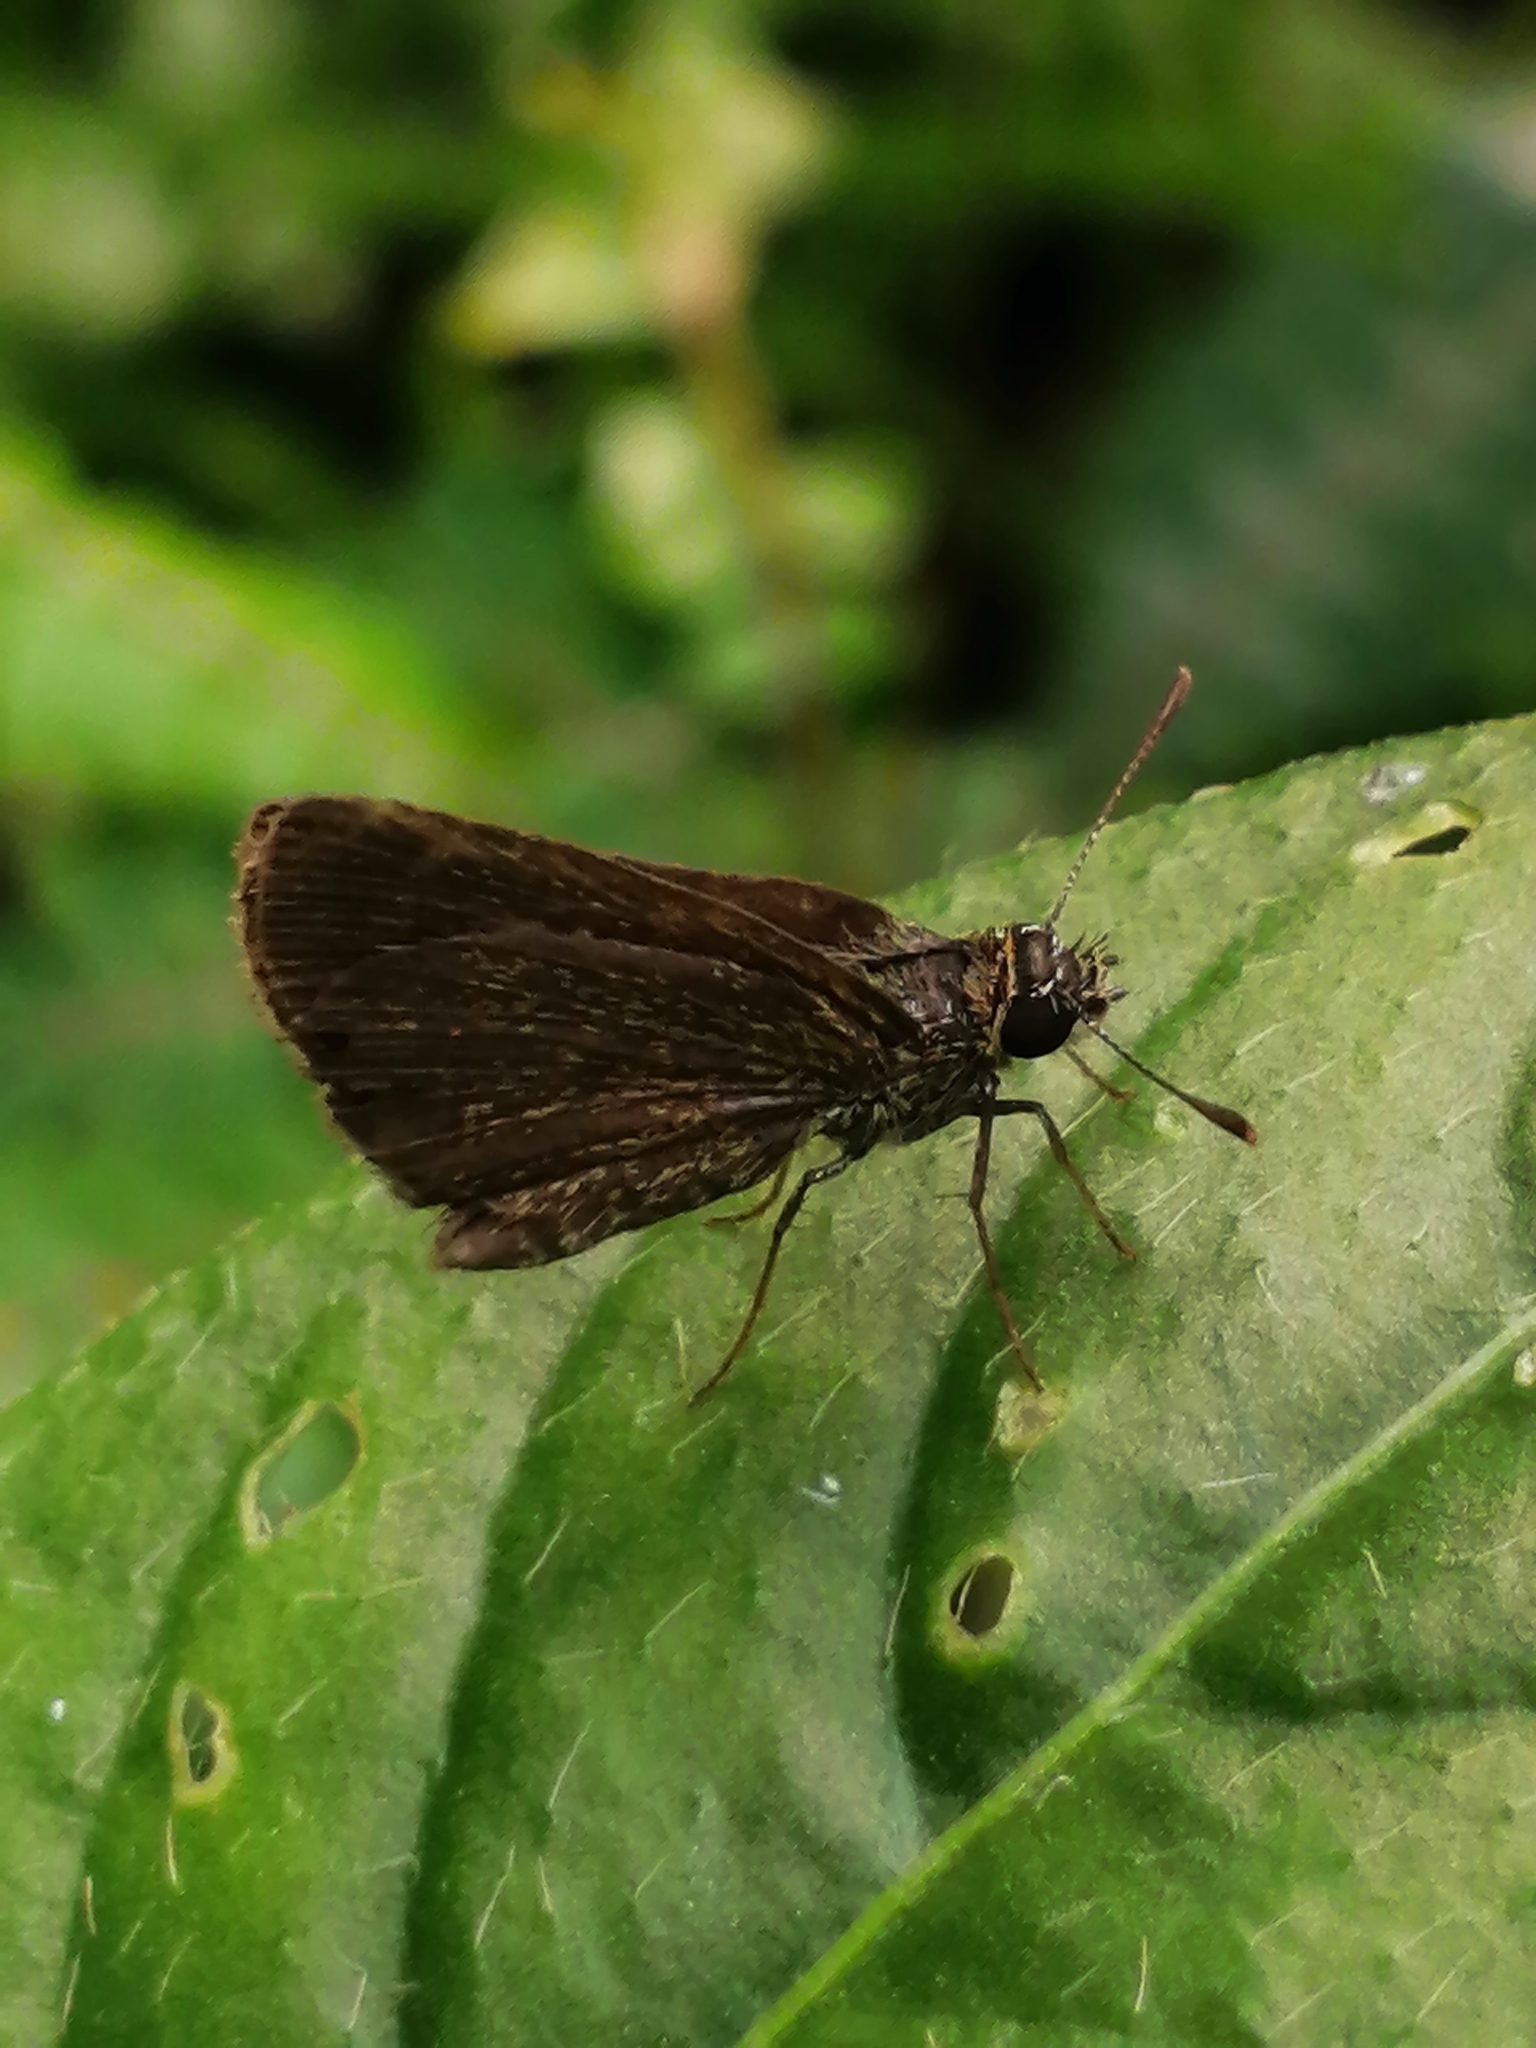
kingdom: Animalia
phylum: Arthropoda
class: Insecta
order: Lepidoptera
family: Hesperiidae
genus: Aeromachus
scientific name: Aeromachus pygmaeus
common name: Pygmy scrub hopper
